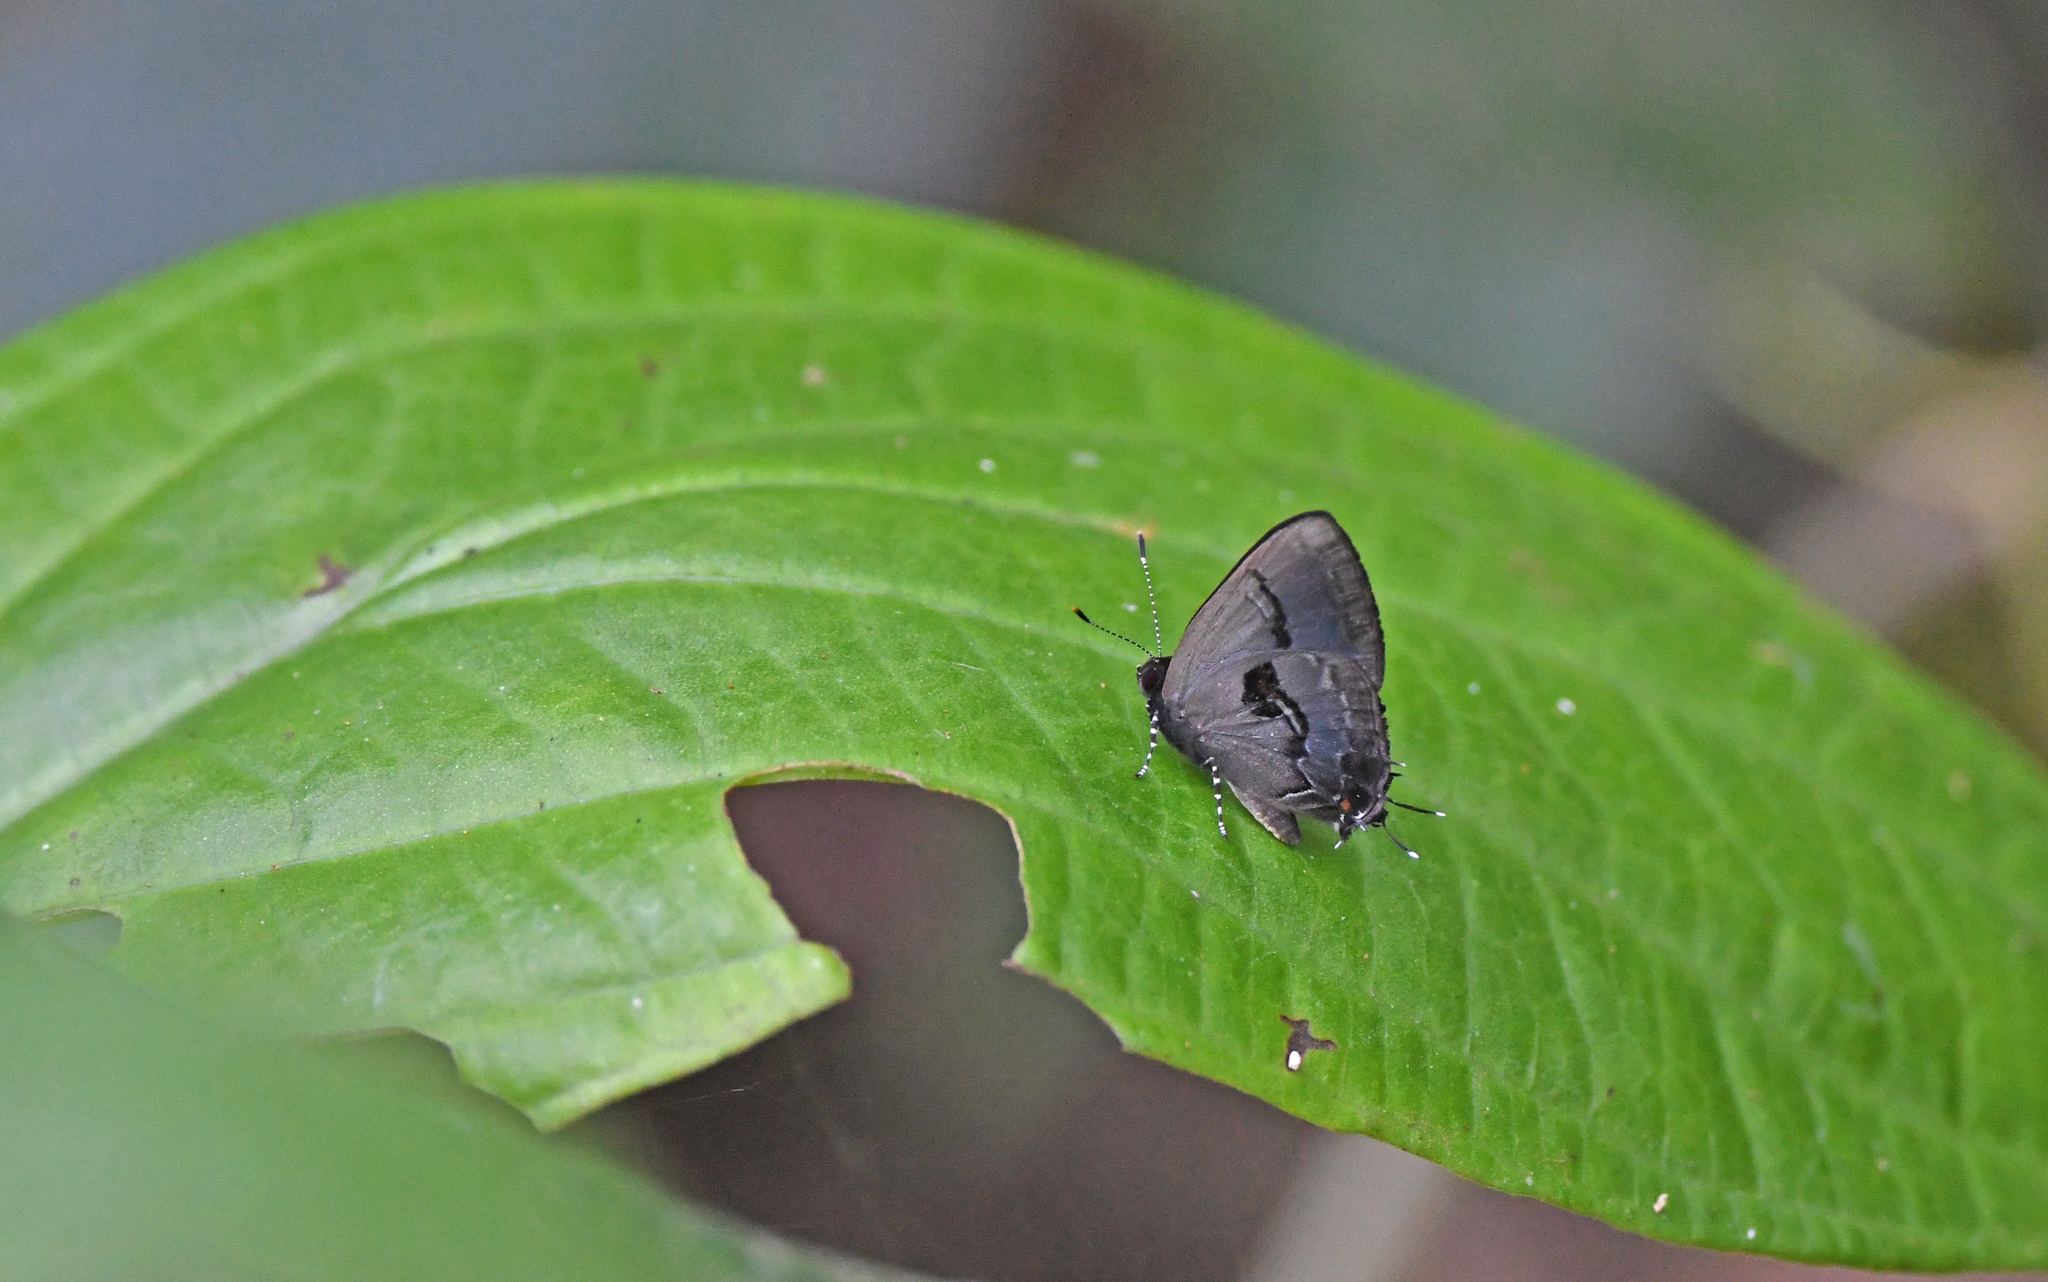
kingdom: Animalia
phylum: Arthropoda
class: Insecta
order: Lepidoptera
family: Lycaenidae
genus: Calycopis
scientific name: Calycopis
